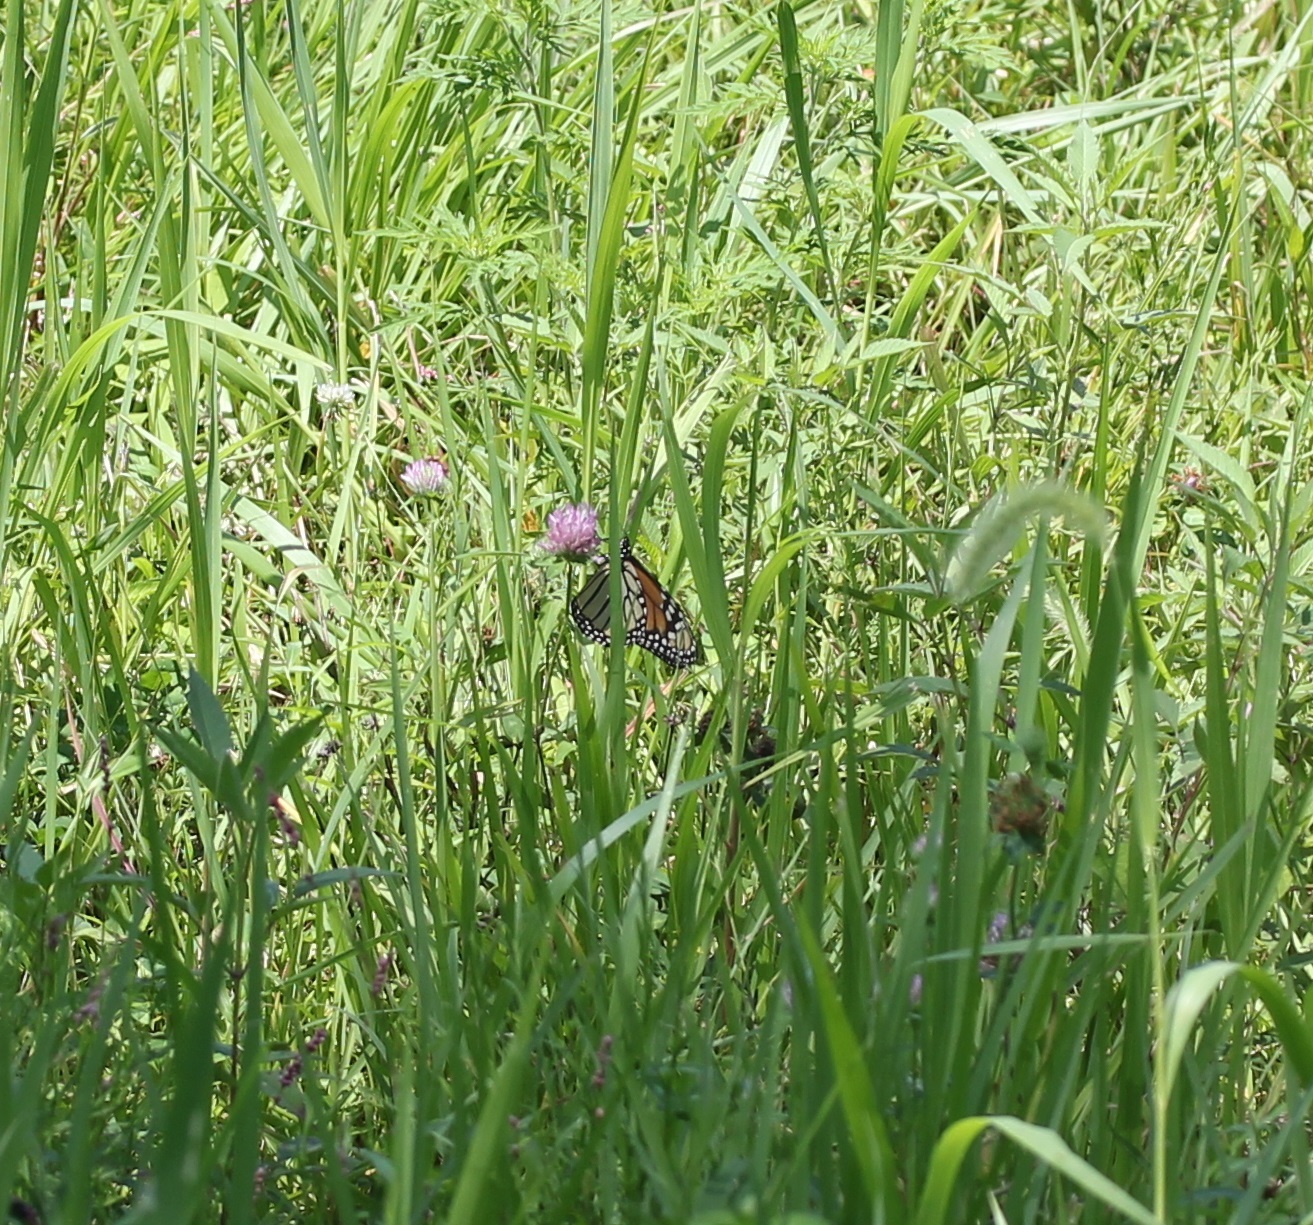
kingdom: Animalia
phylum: Arthropoda
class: Insecta
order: Lepidoptera
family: Nymphalidae
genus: Danaus
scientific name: Danaus plexippus
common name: Monarch
